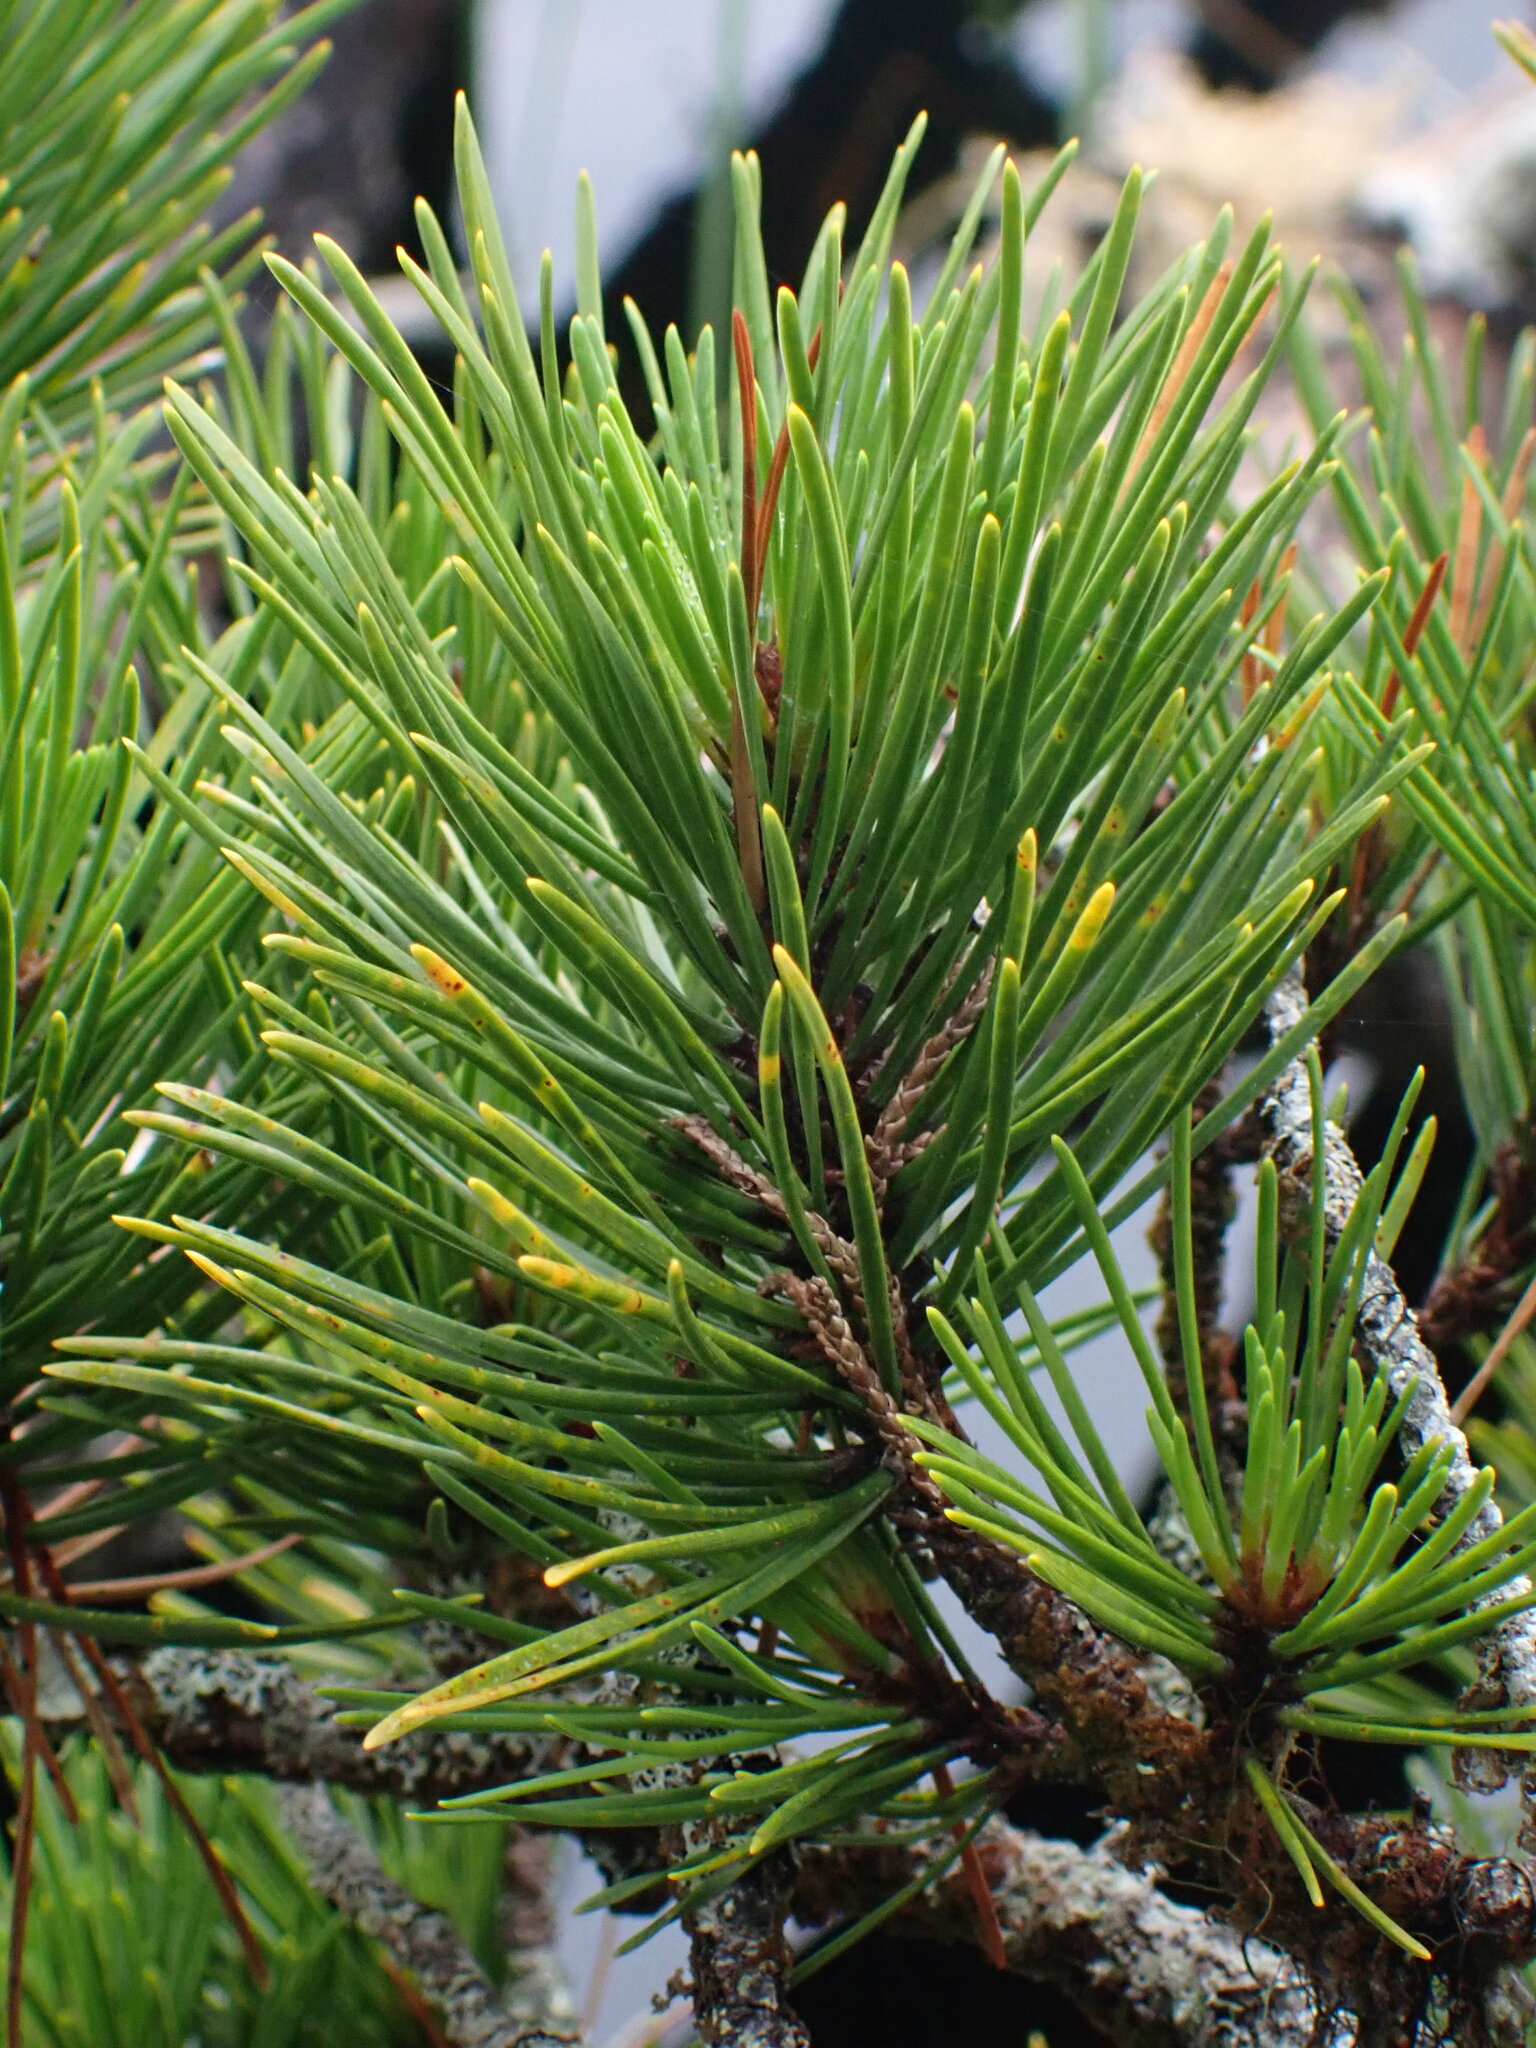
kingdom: Plantae
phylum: Tracheophyta
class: Pinopsida
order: Pinales
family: Pinaceae
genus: Pinus
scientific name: Pinus contorta
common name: Lodgepole pine
